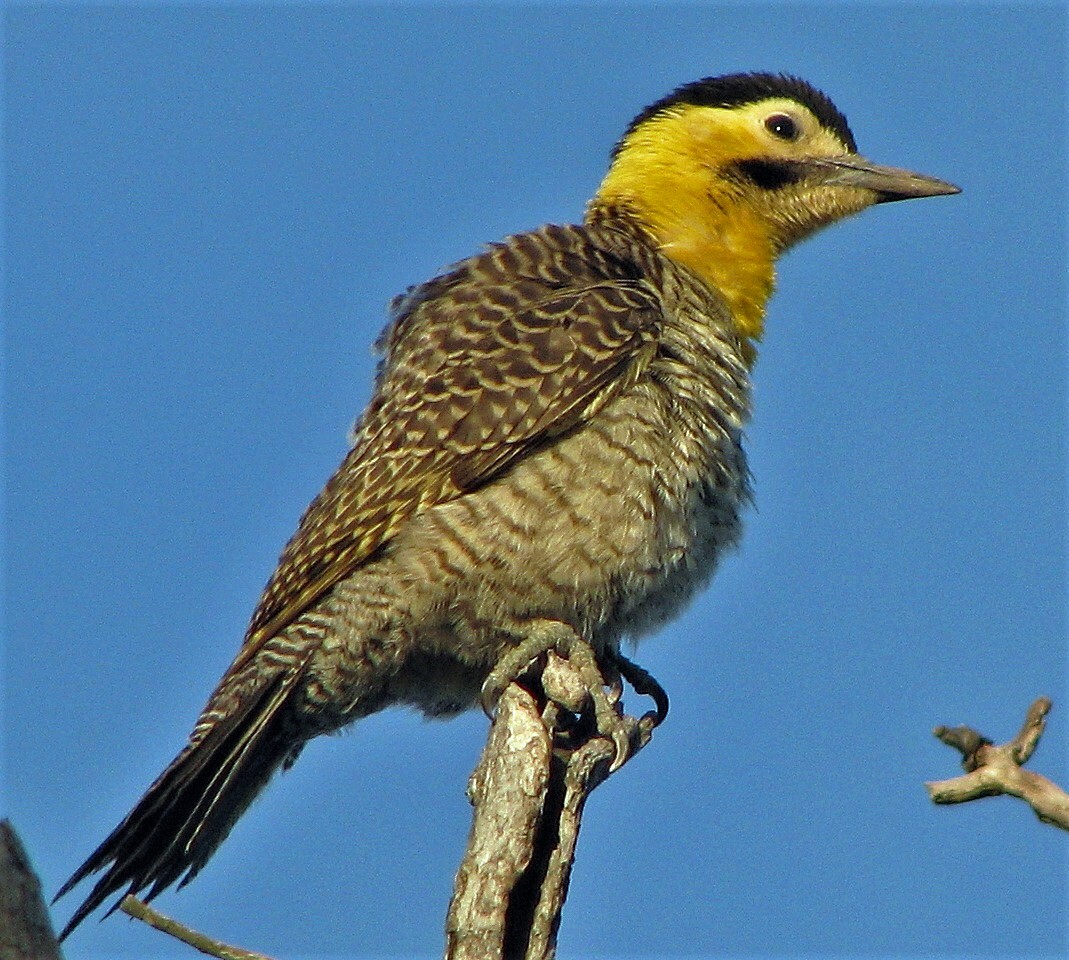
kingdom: Animalia
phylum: Chordata
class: Aves
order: Piciformes
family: Picidae
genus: Colaptes
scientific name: Colaptes campestris
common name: Campo flicker
